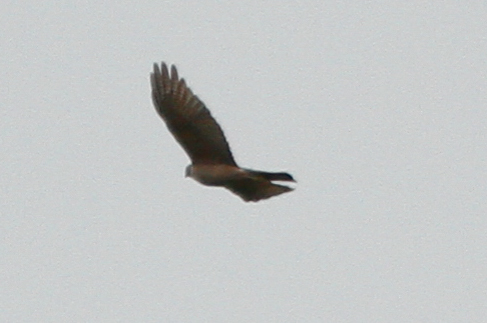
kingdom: Animalia
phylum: Chordata
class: Aves
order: Accipitriformes
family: Accipitridae
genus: Accipiter
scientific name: Accipiter cirrocephalus
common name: Collared sparrowhawk
